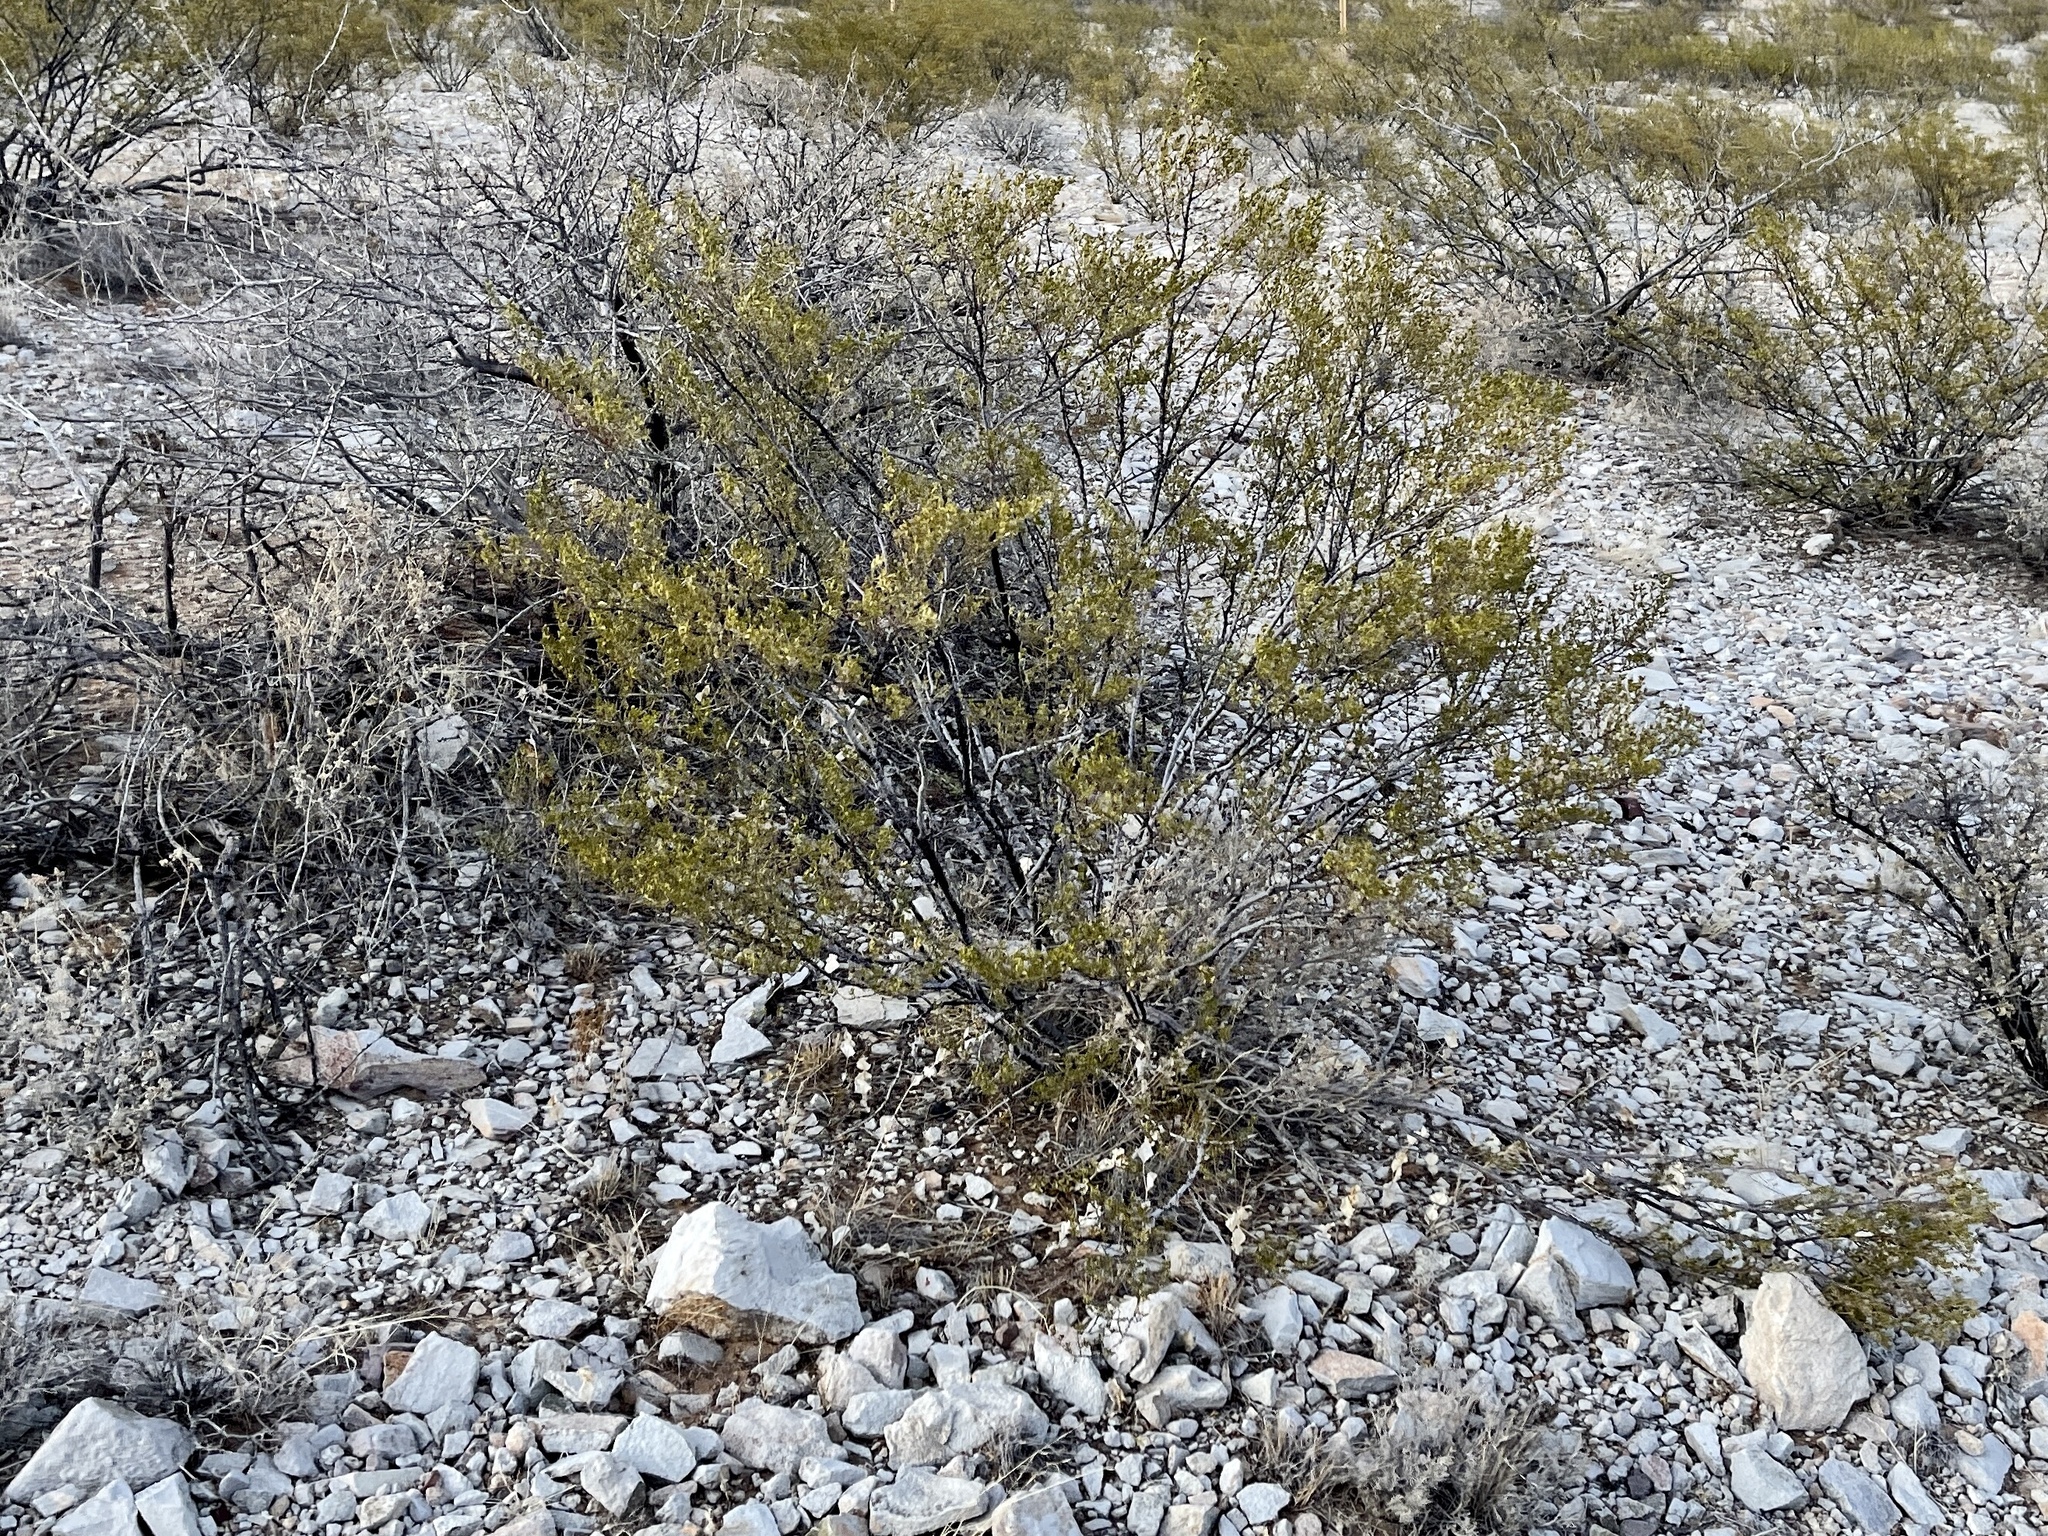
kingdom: Plantae
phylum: Tracheophyta
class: Magnoliopsida
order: Zygophyllales
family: Zygophyllaceae
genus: Larrea
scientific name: Larrea tridentata
